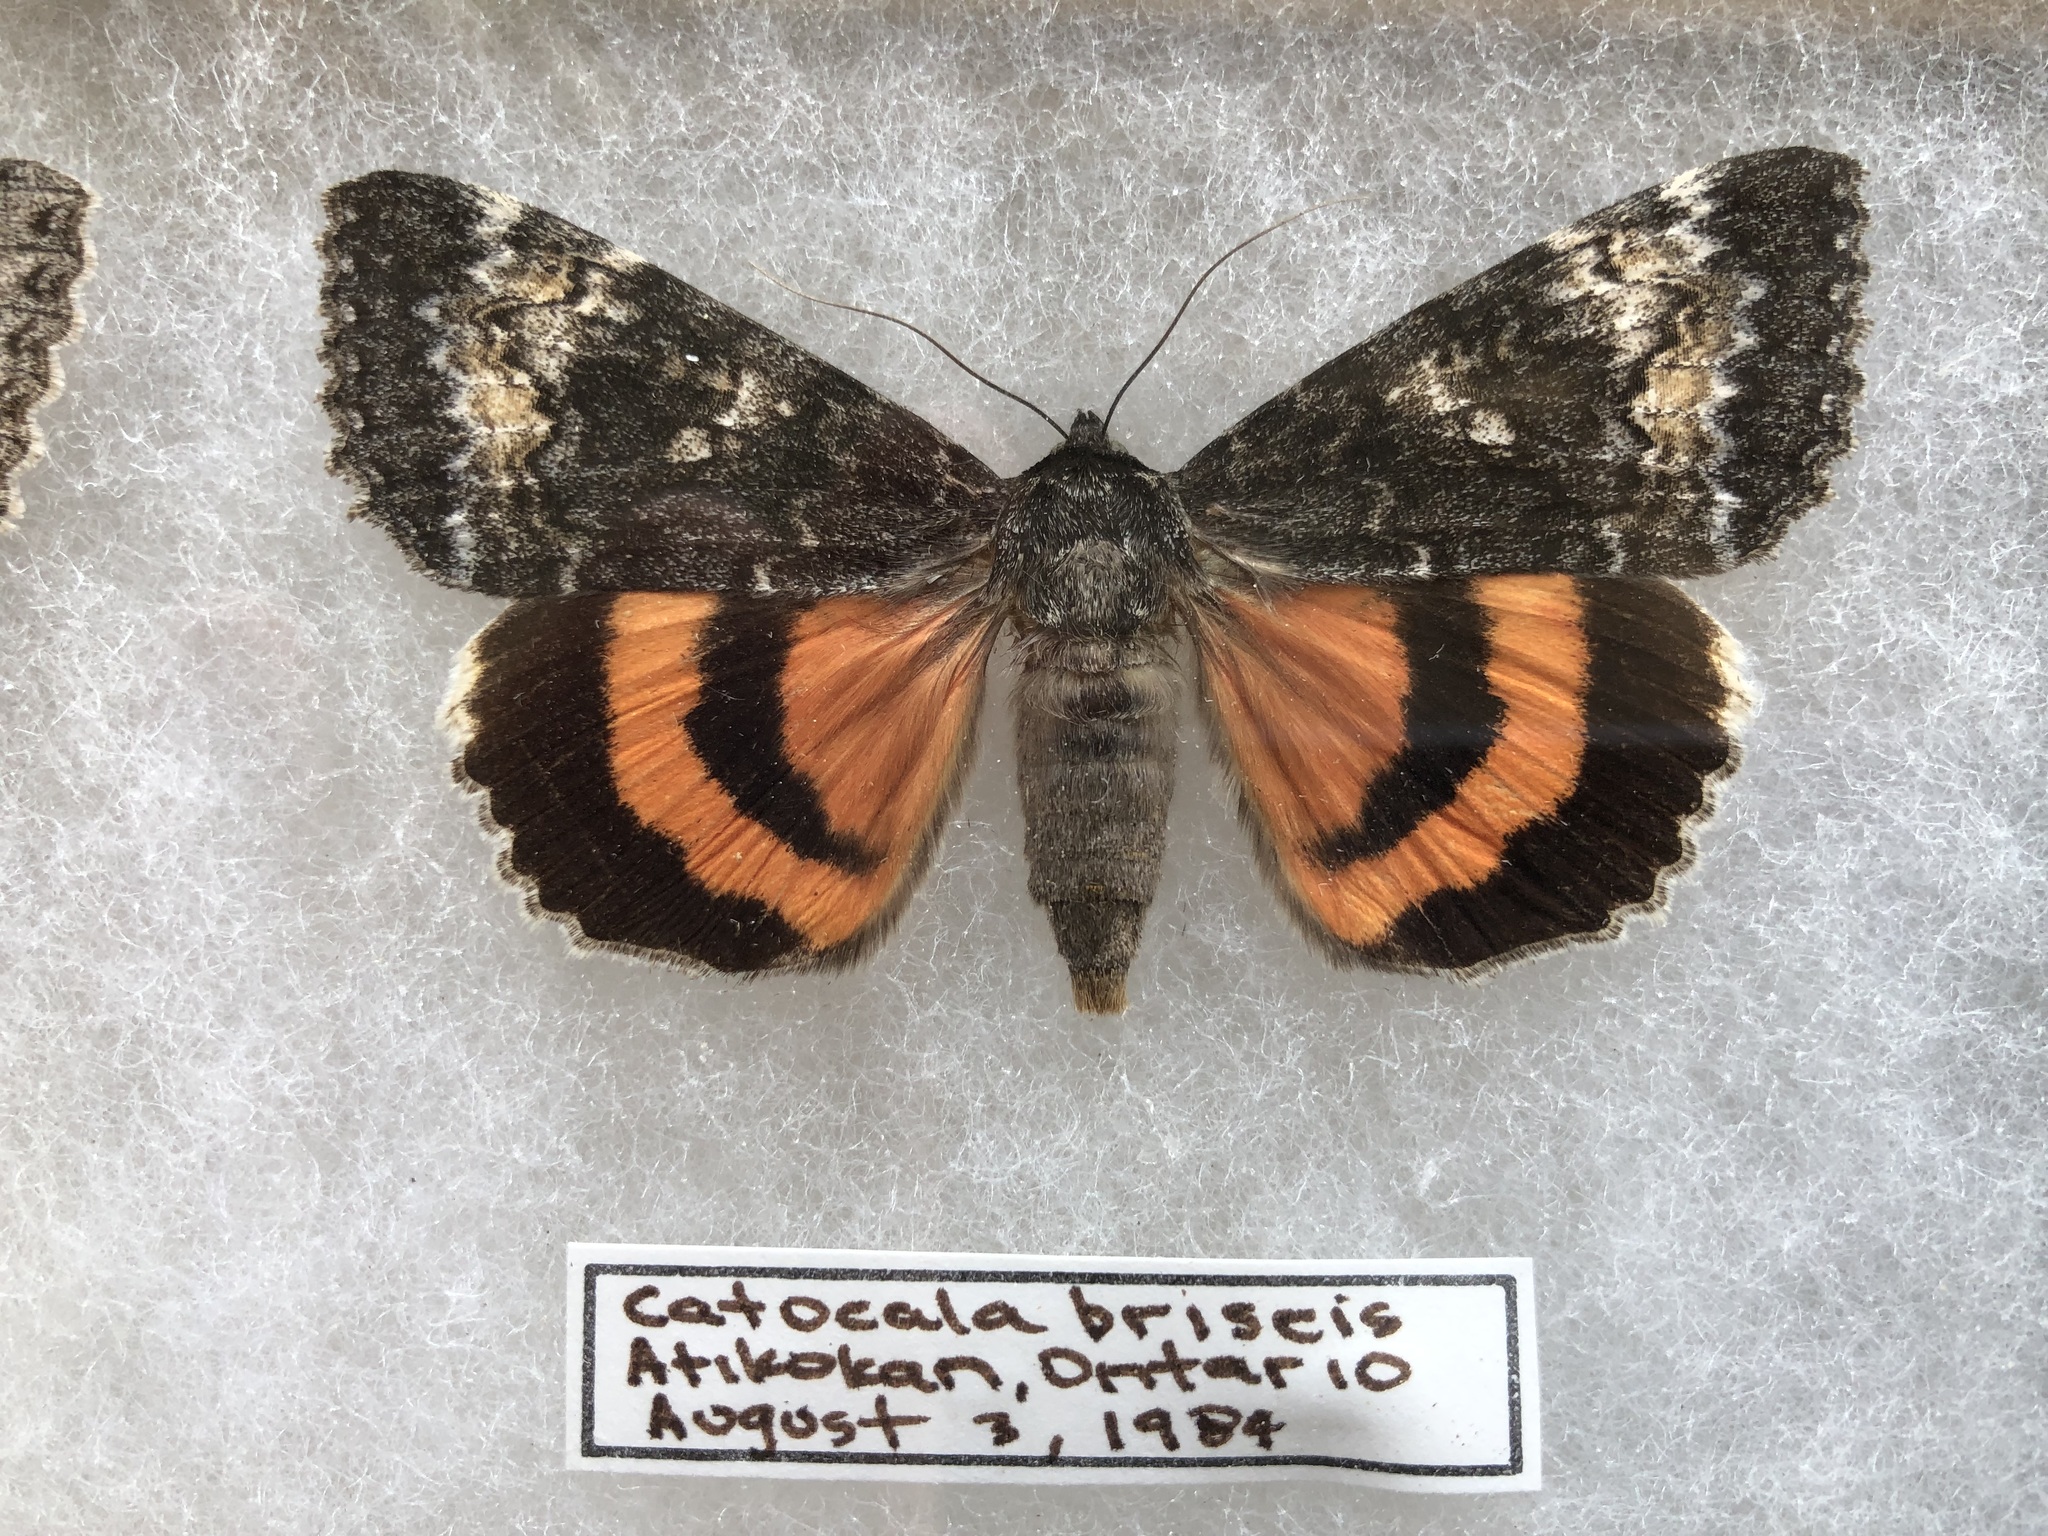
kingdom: Animalia
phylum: Arthropoda
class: Insecta
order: Lepidoptera
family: Erebidae
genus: Catocala
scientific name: Catocala briseis
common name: Briseis underwing
